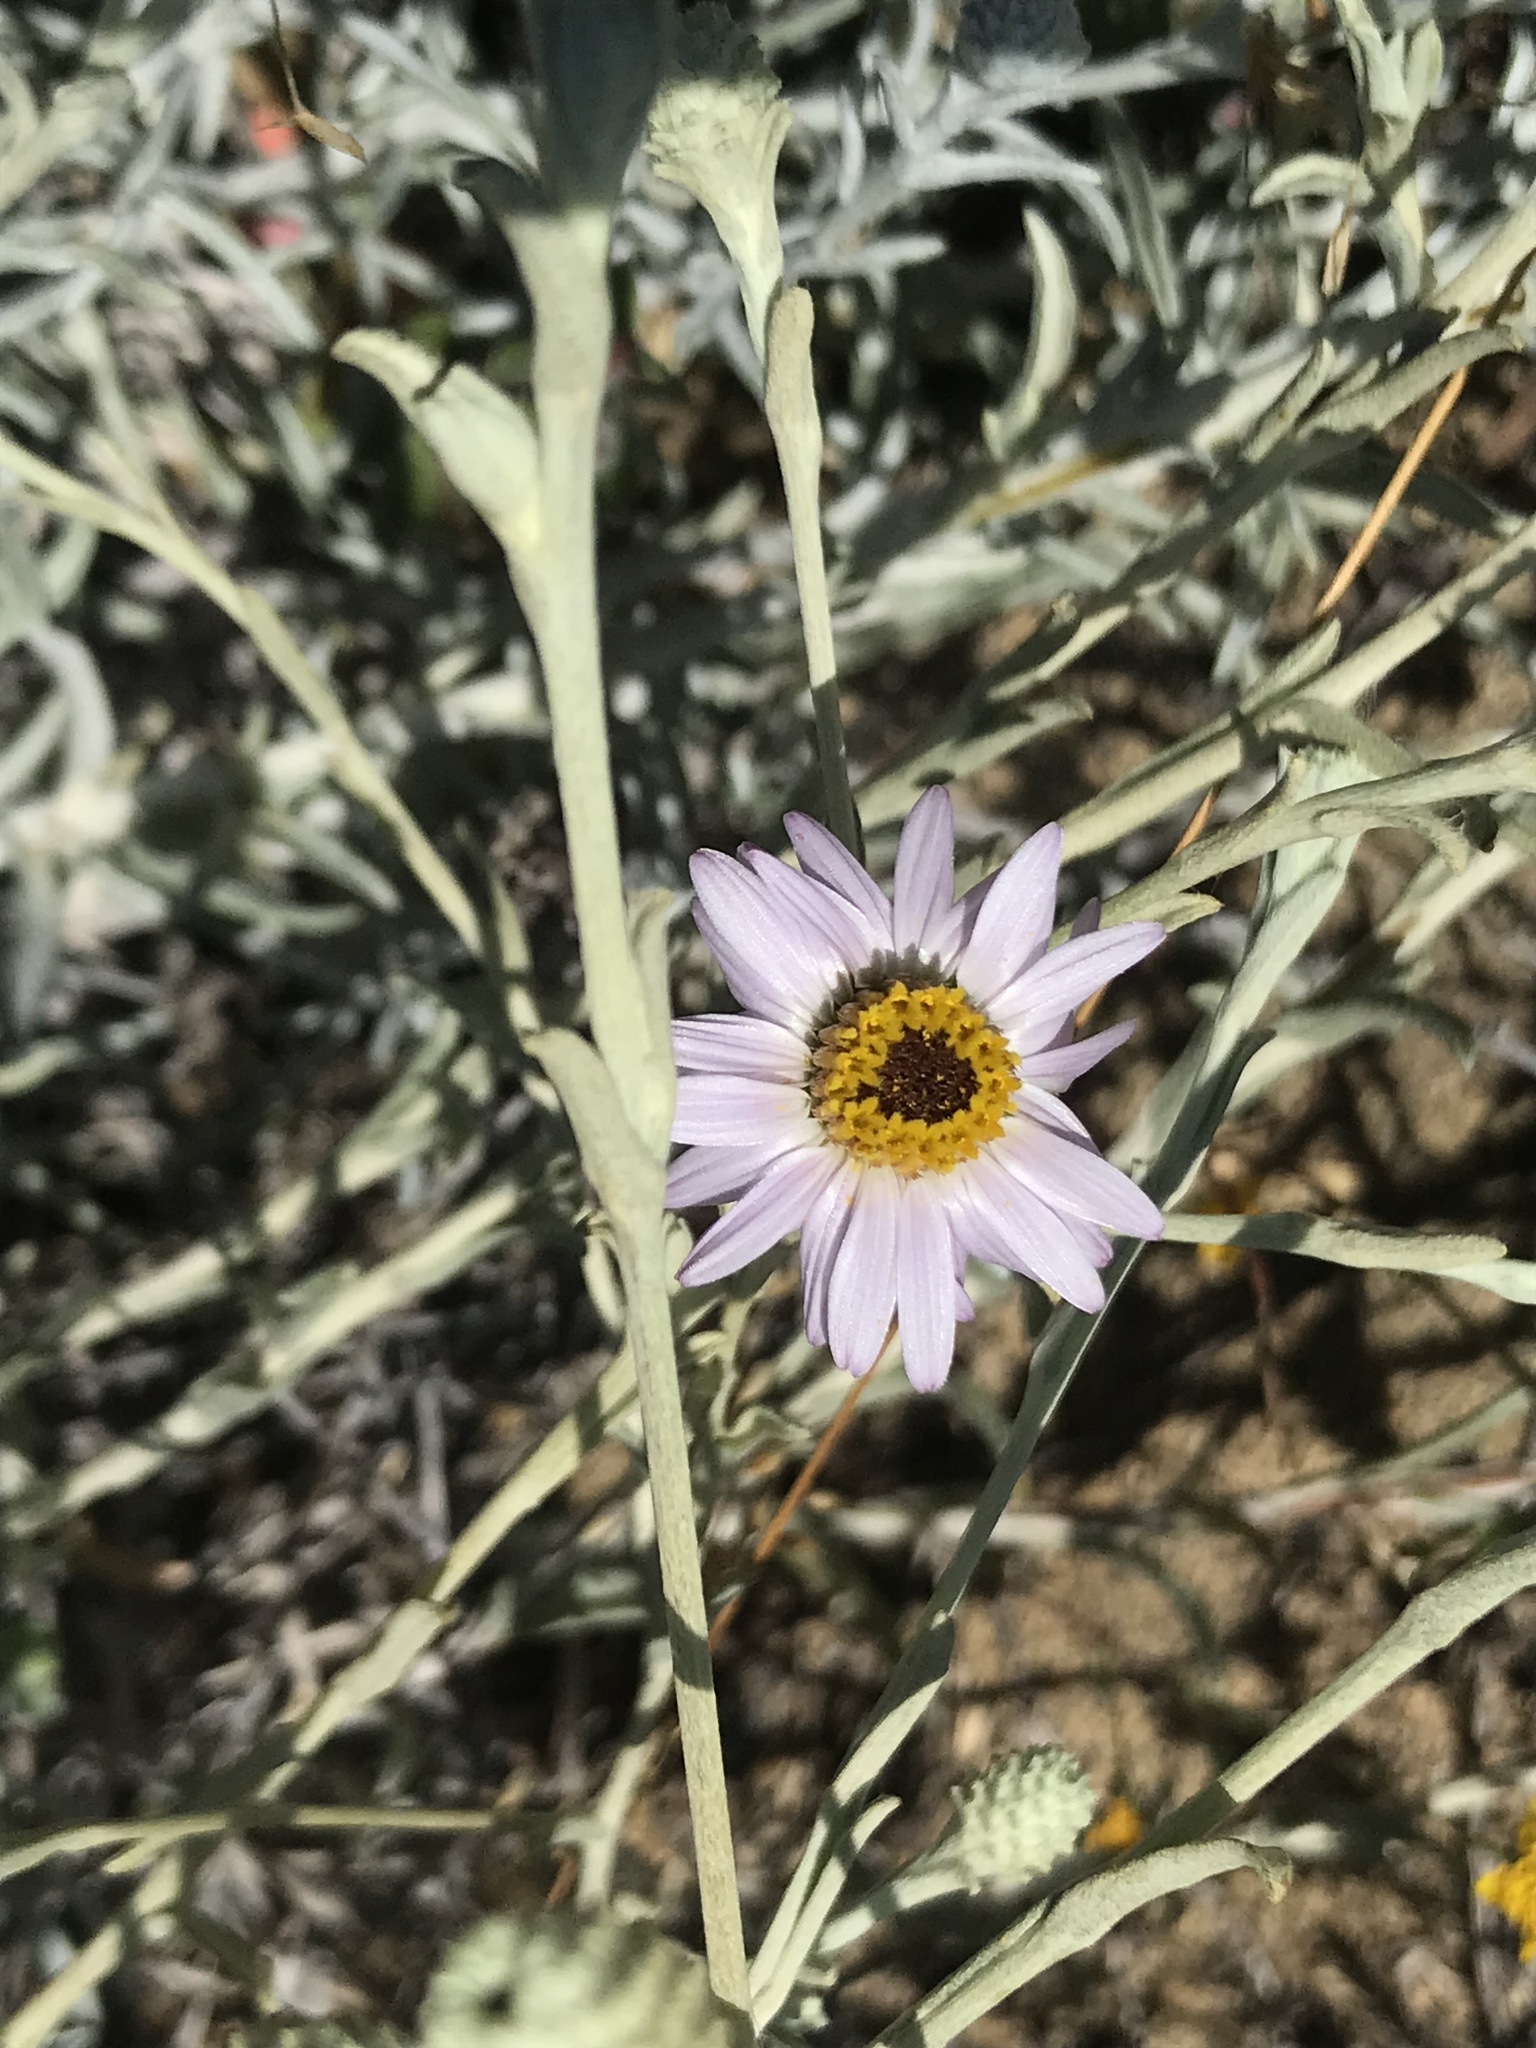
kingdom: Plantae
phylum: Tracheophyta
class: Magnoliopsida
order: Asterales
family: Asteraceae
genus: Corethrogyne
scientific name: Corethrogyne filaginifolia
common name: Sand-aster
